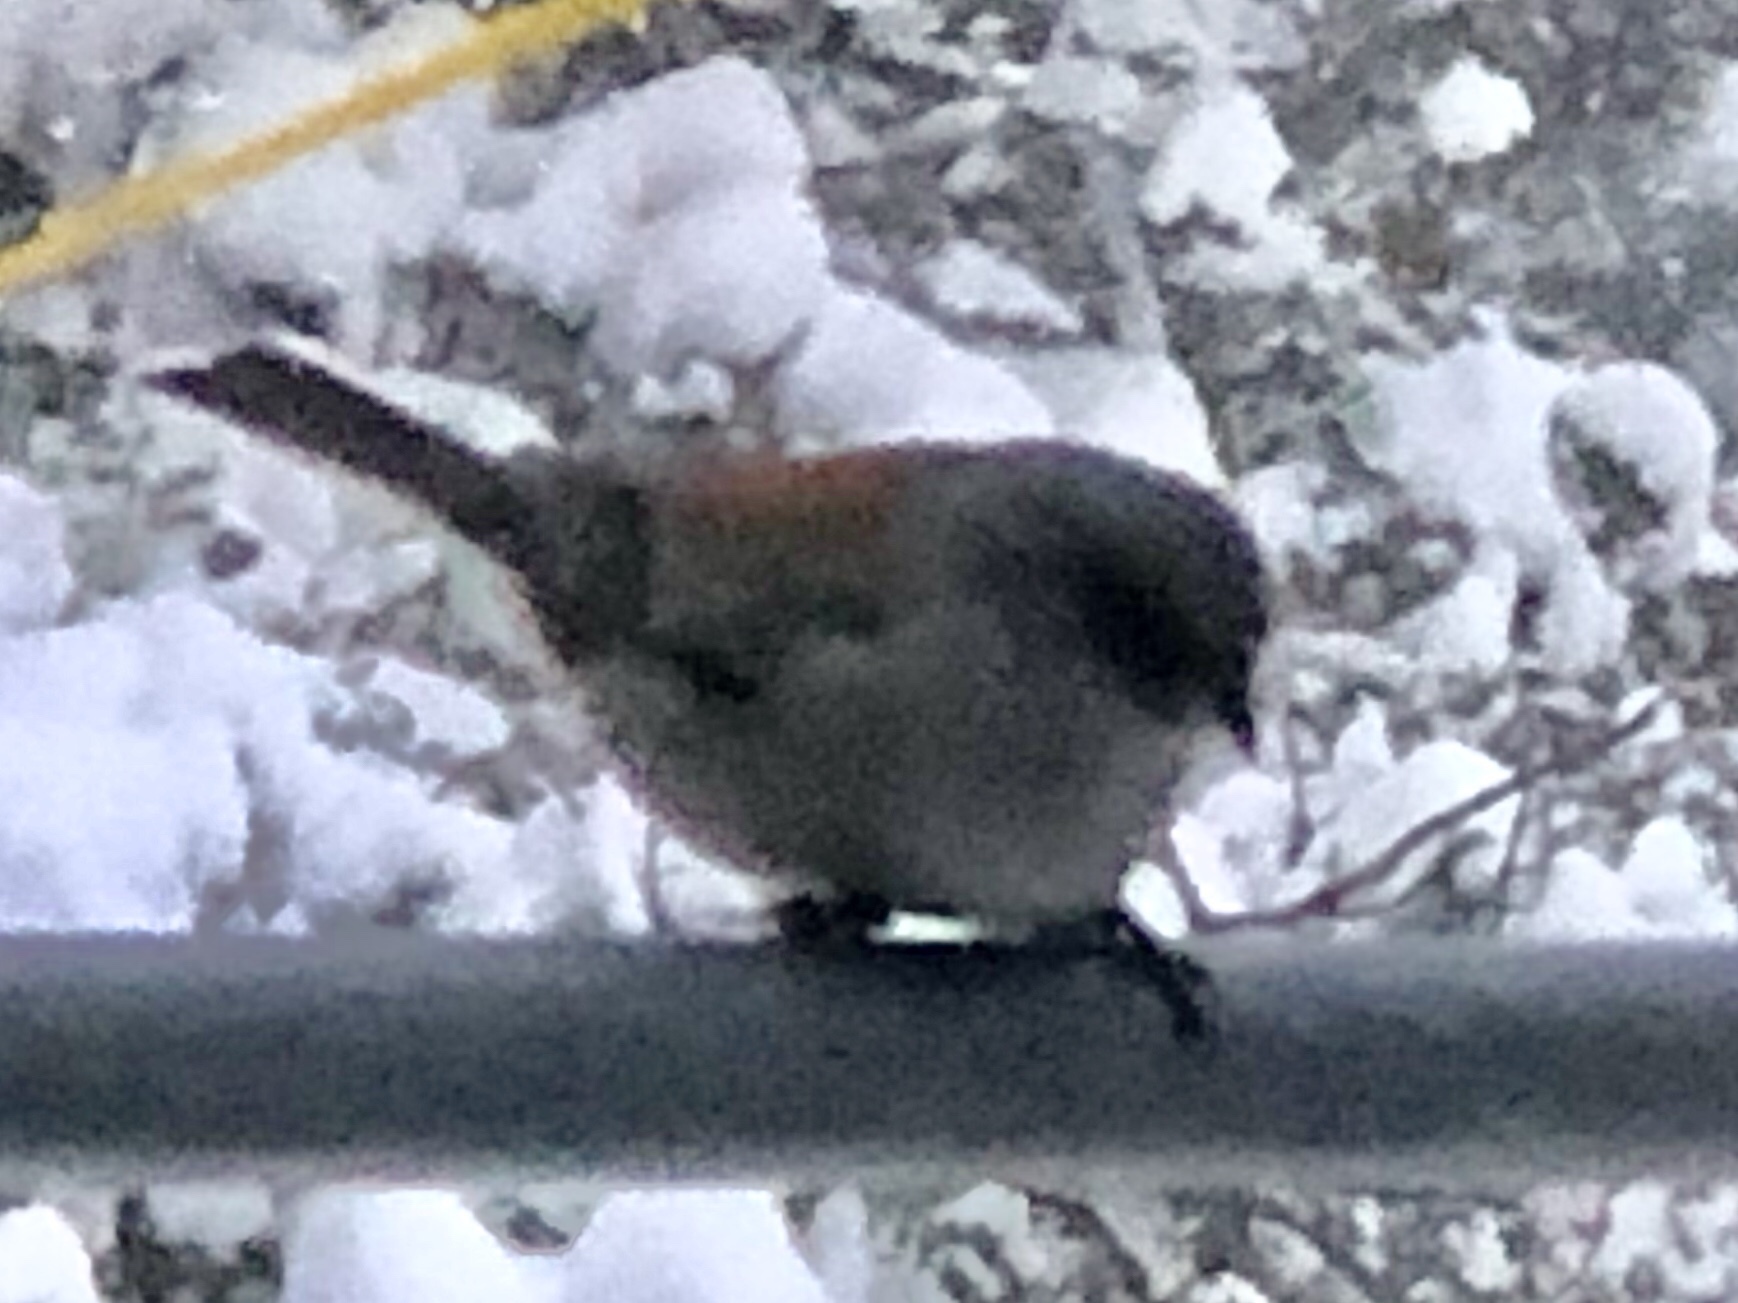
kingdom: Animalia
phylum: Chordata
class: Aves
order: Passeriformes
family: Passerellidae
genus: Junco
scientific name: Junco hyemalis
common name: Dark-eyed junco
